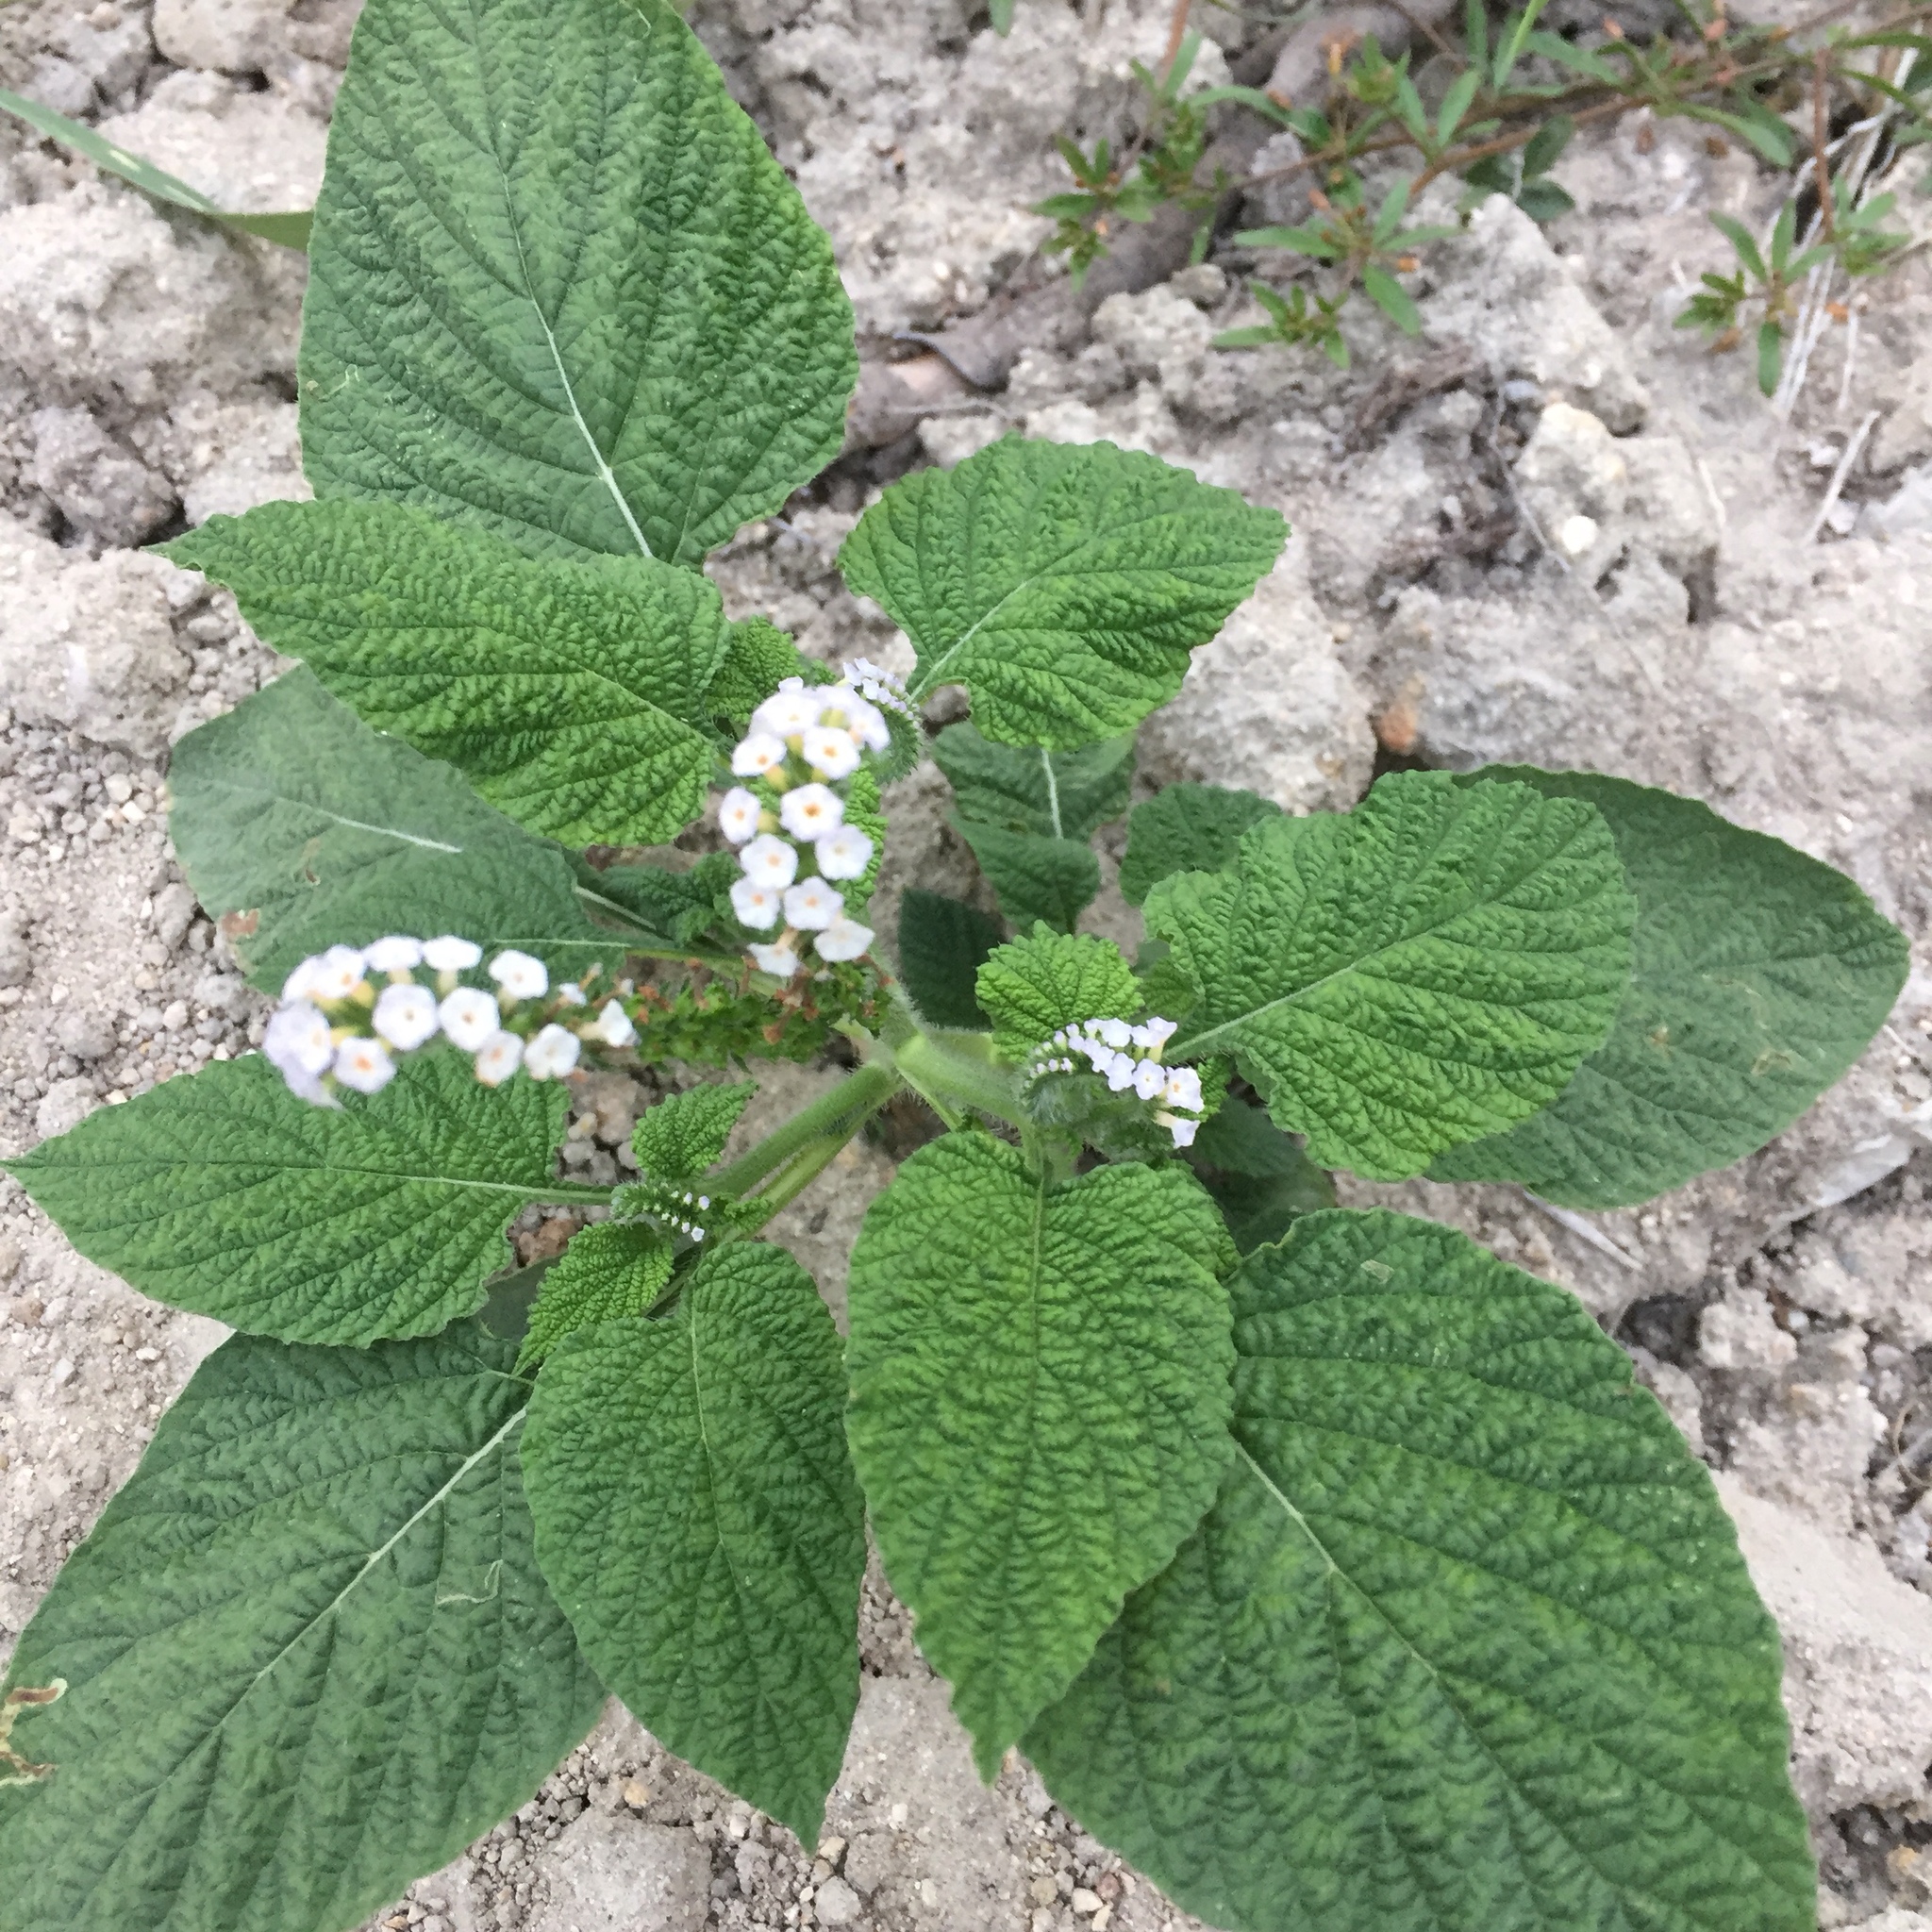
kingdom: Plantae
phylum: Tracheophyta
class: Magnoliopsida
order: Boraginales
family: Heliotropiaceae
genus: Heliotropium
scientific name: Heliotropium indicum
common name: Indian heliotrope
